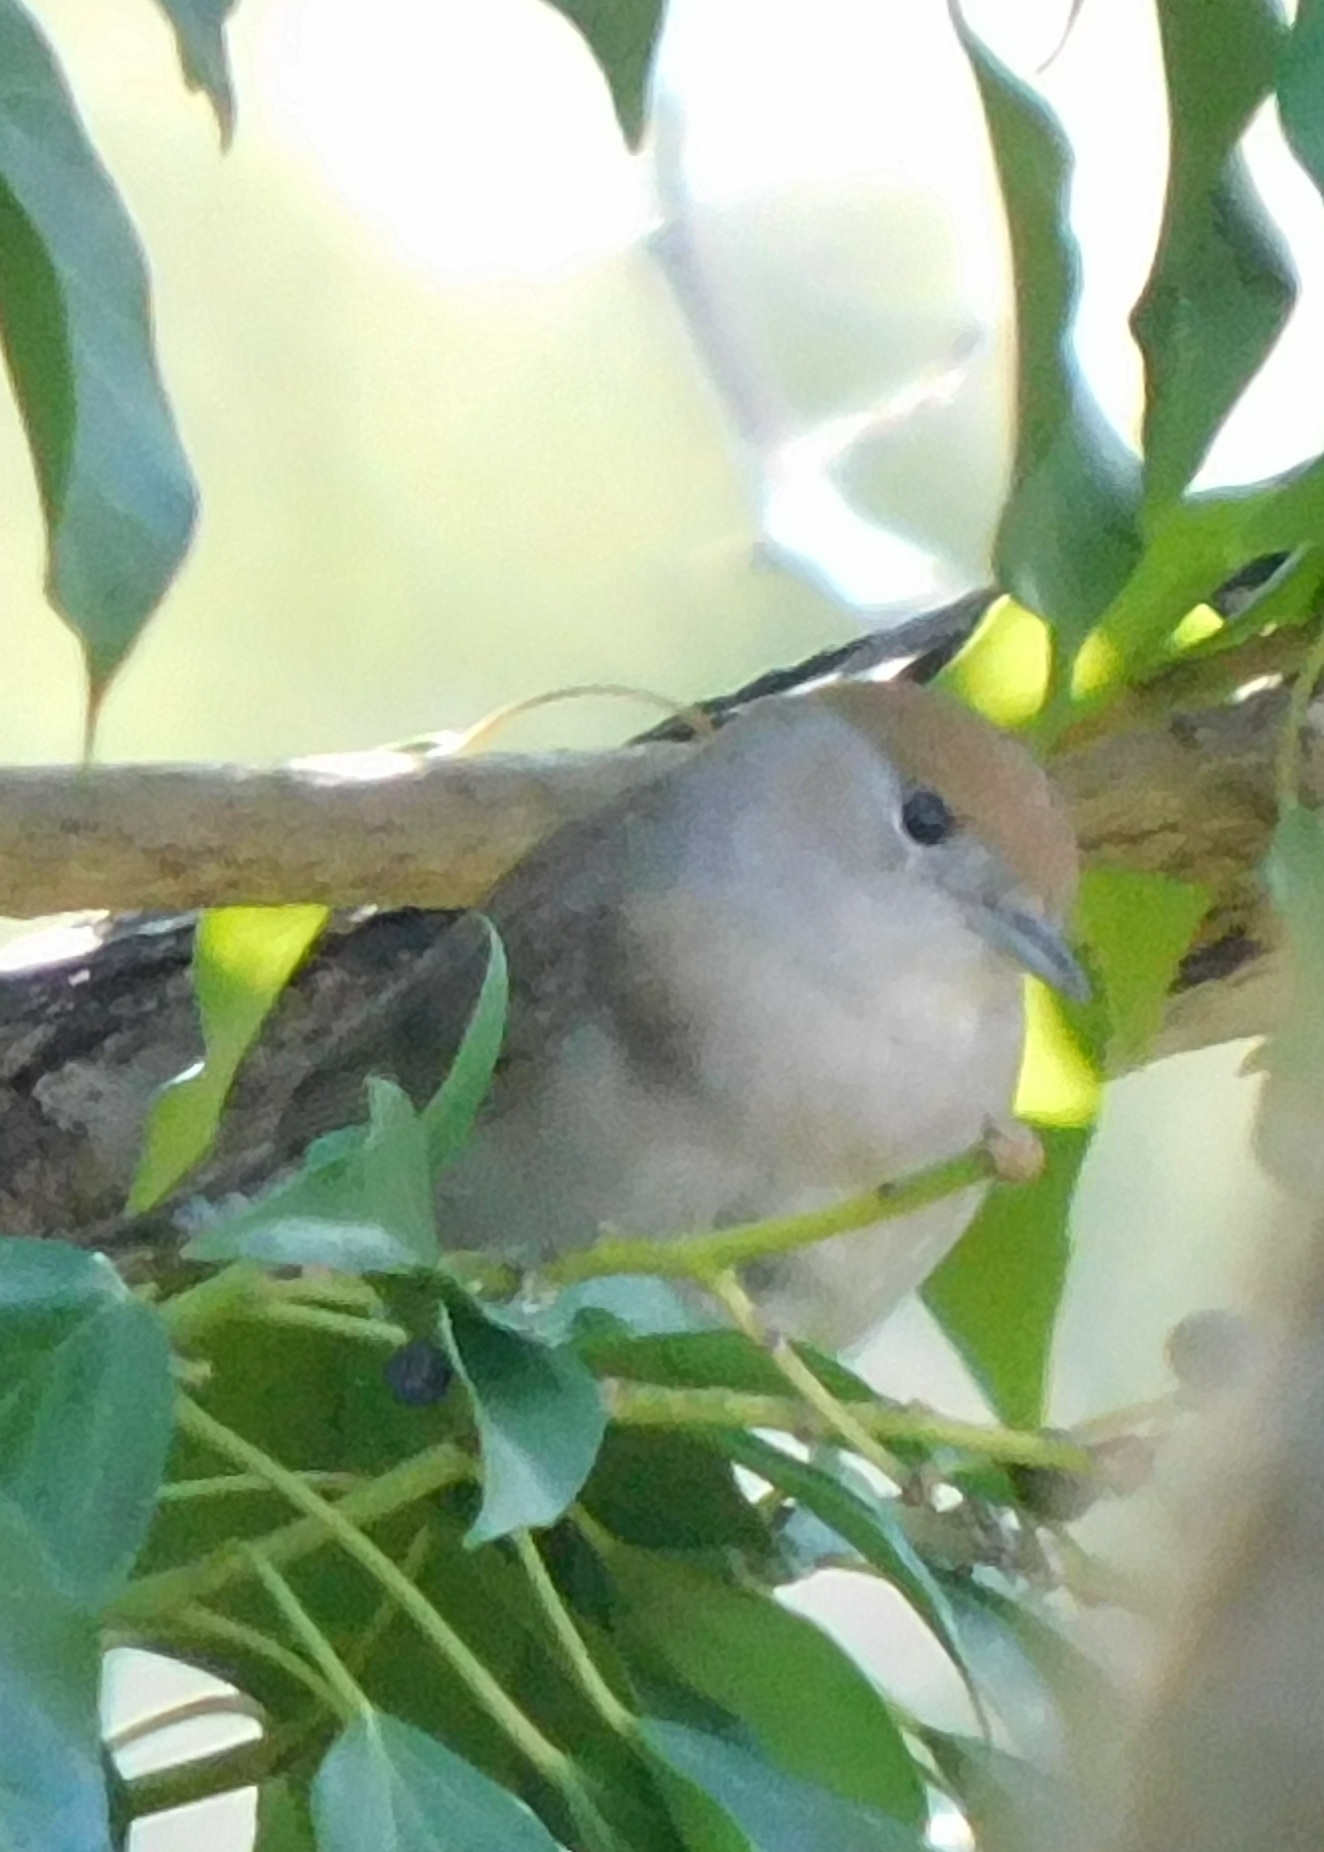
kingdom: Animalia
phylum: Chordata
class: Aves
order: Passeriformes
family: Sylviidae
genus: Sylvia
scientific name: Sylvia atricapilla
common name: Eurasian blackcap
